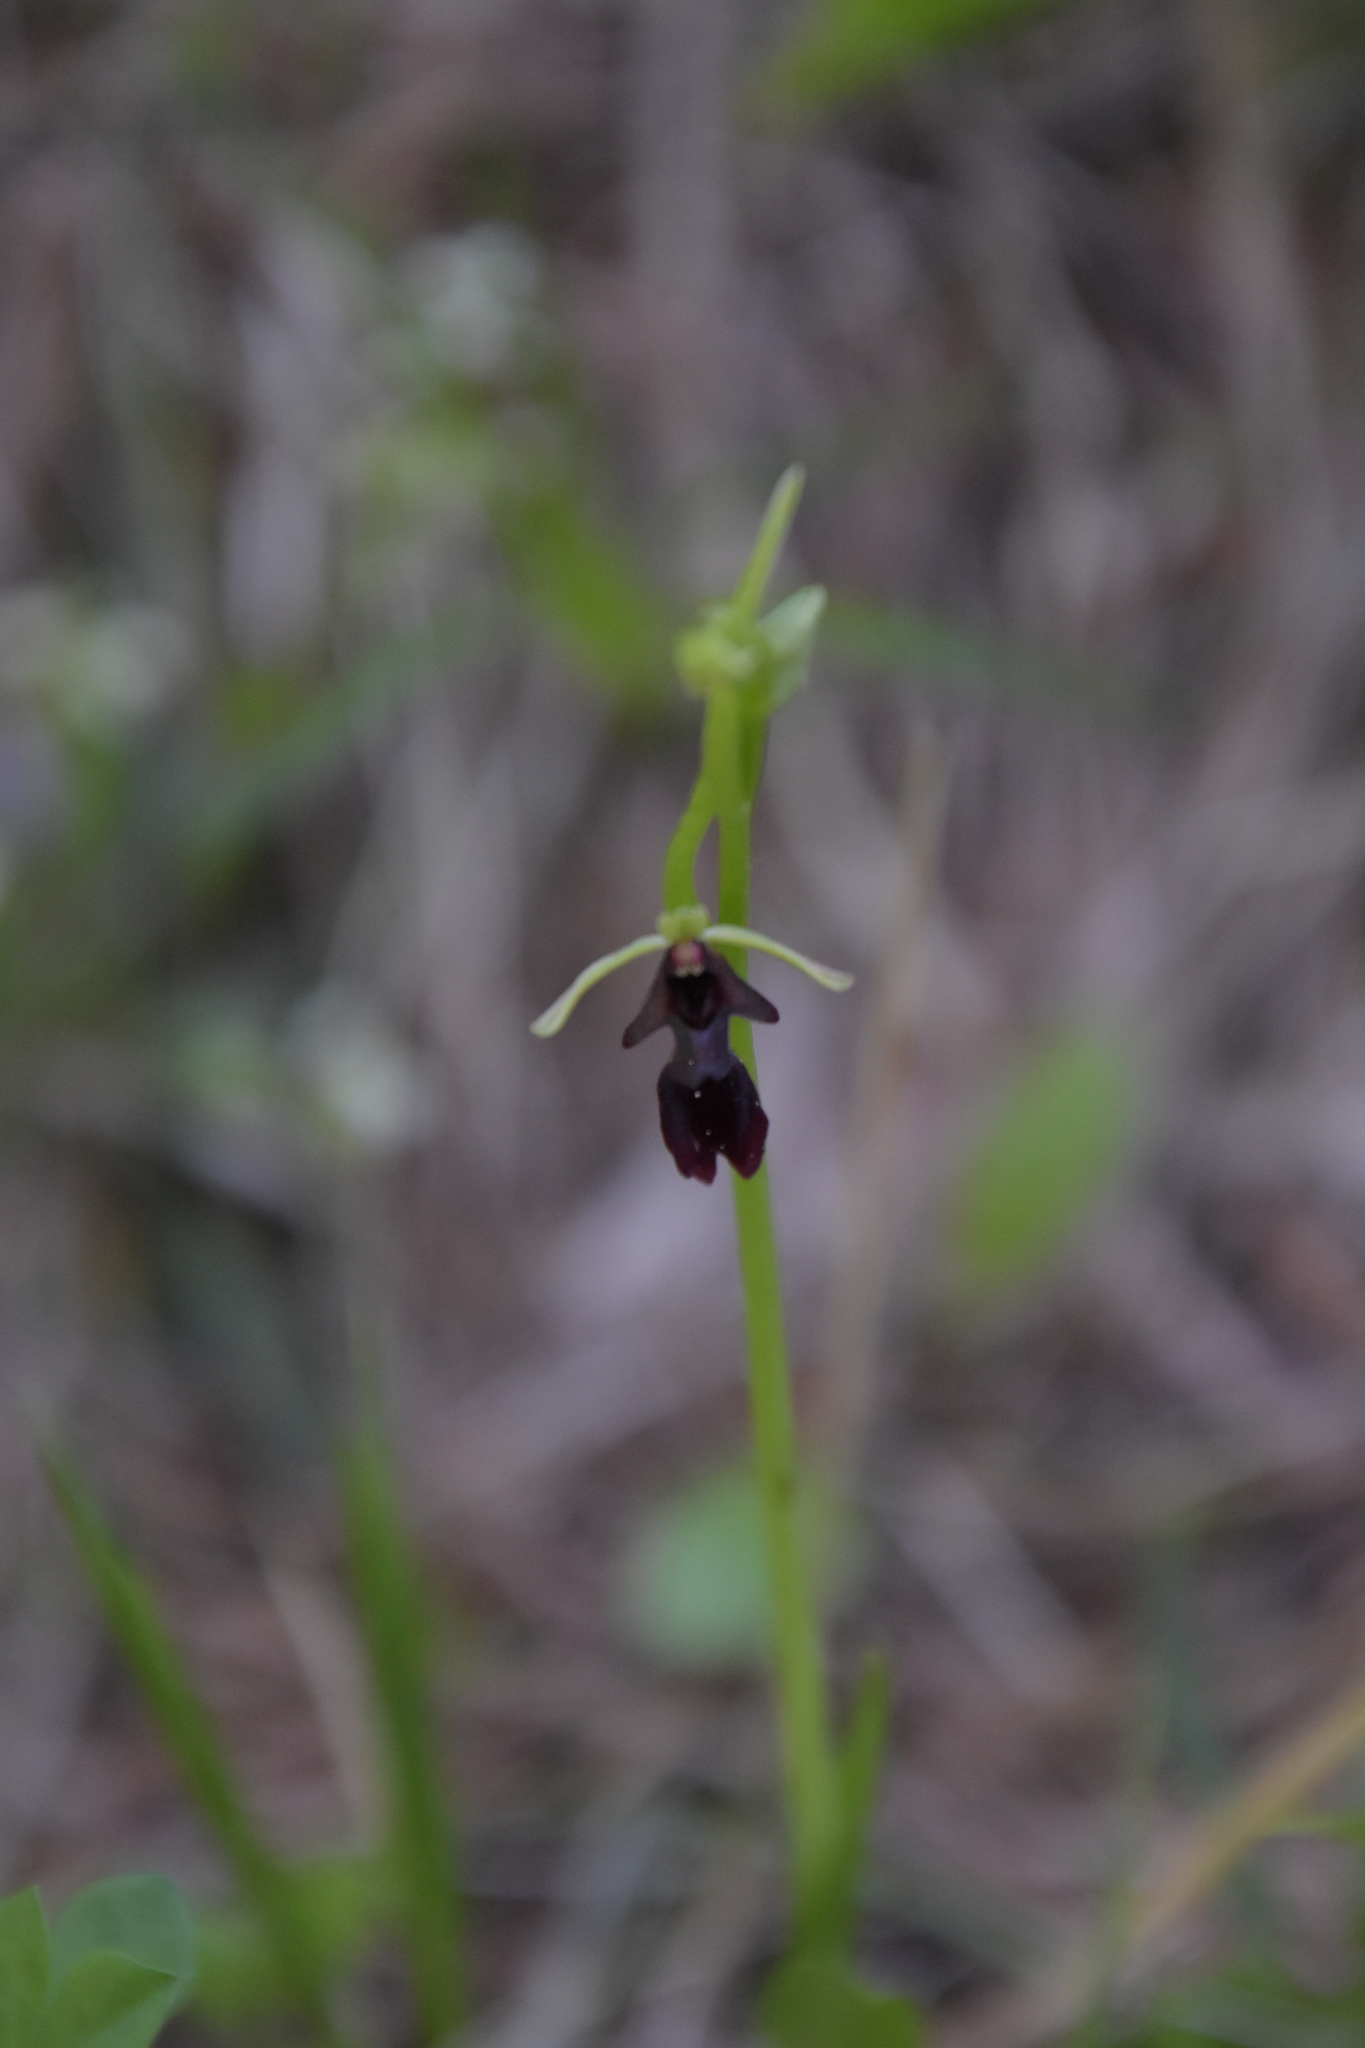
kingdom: Plantae
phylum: Tracheophyta
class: Liliopsida
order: Asparagales
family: Orchidaceae
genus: Ophrys
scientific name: Ophrys insectifera
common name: Fly orchid
